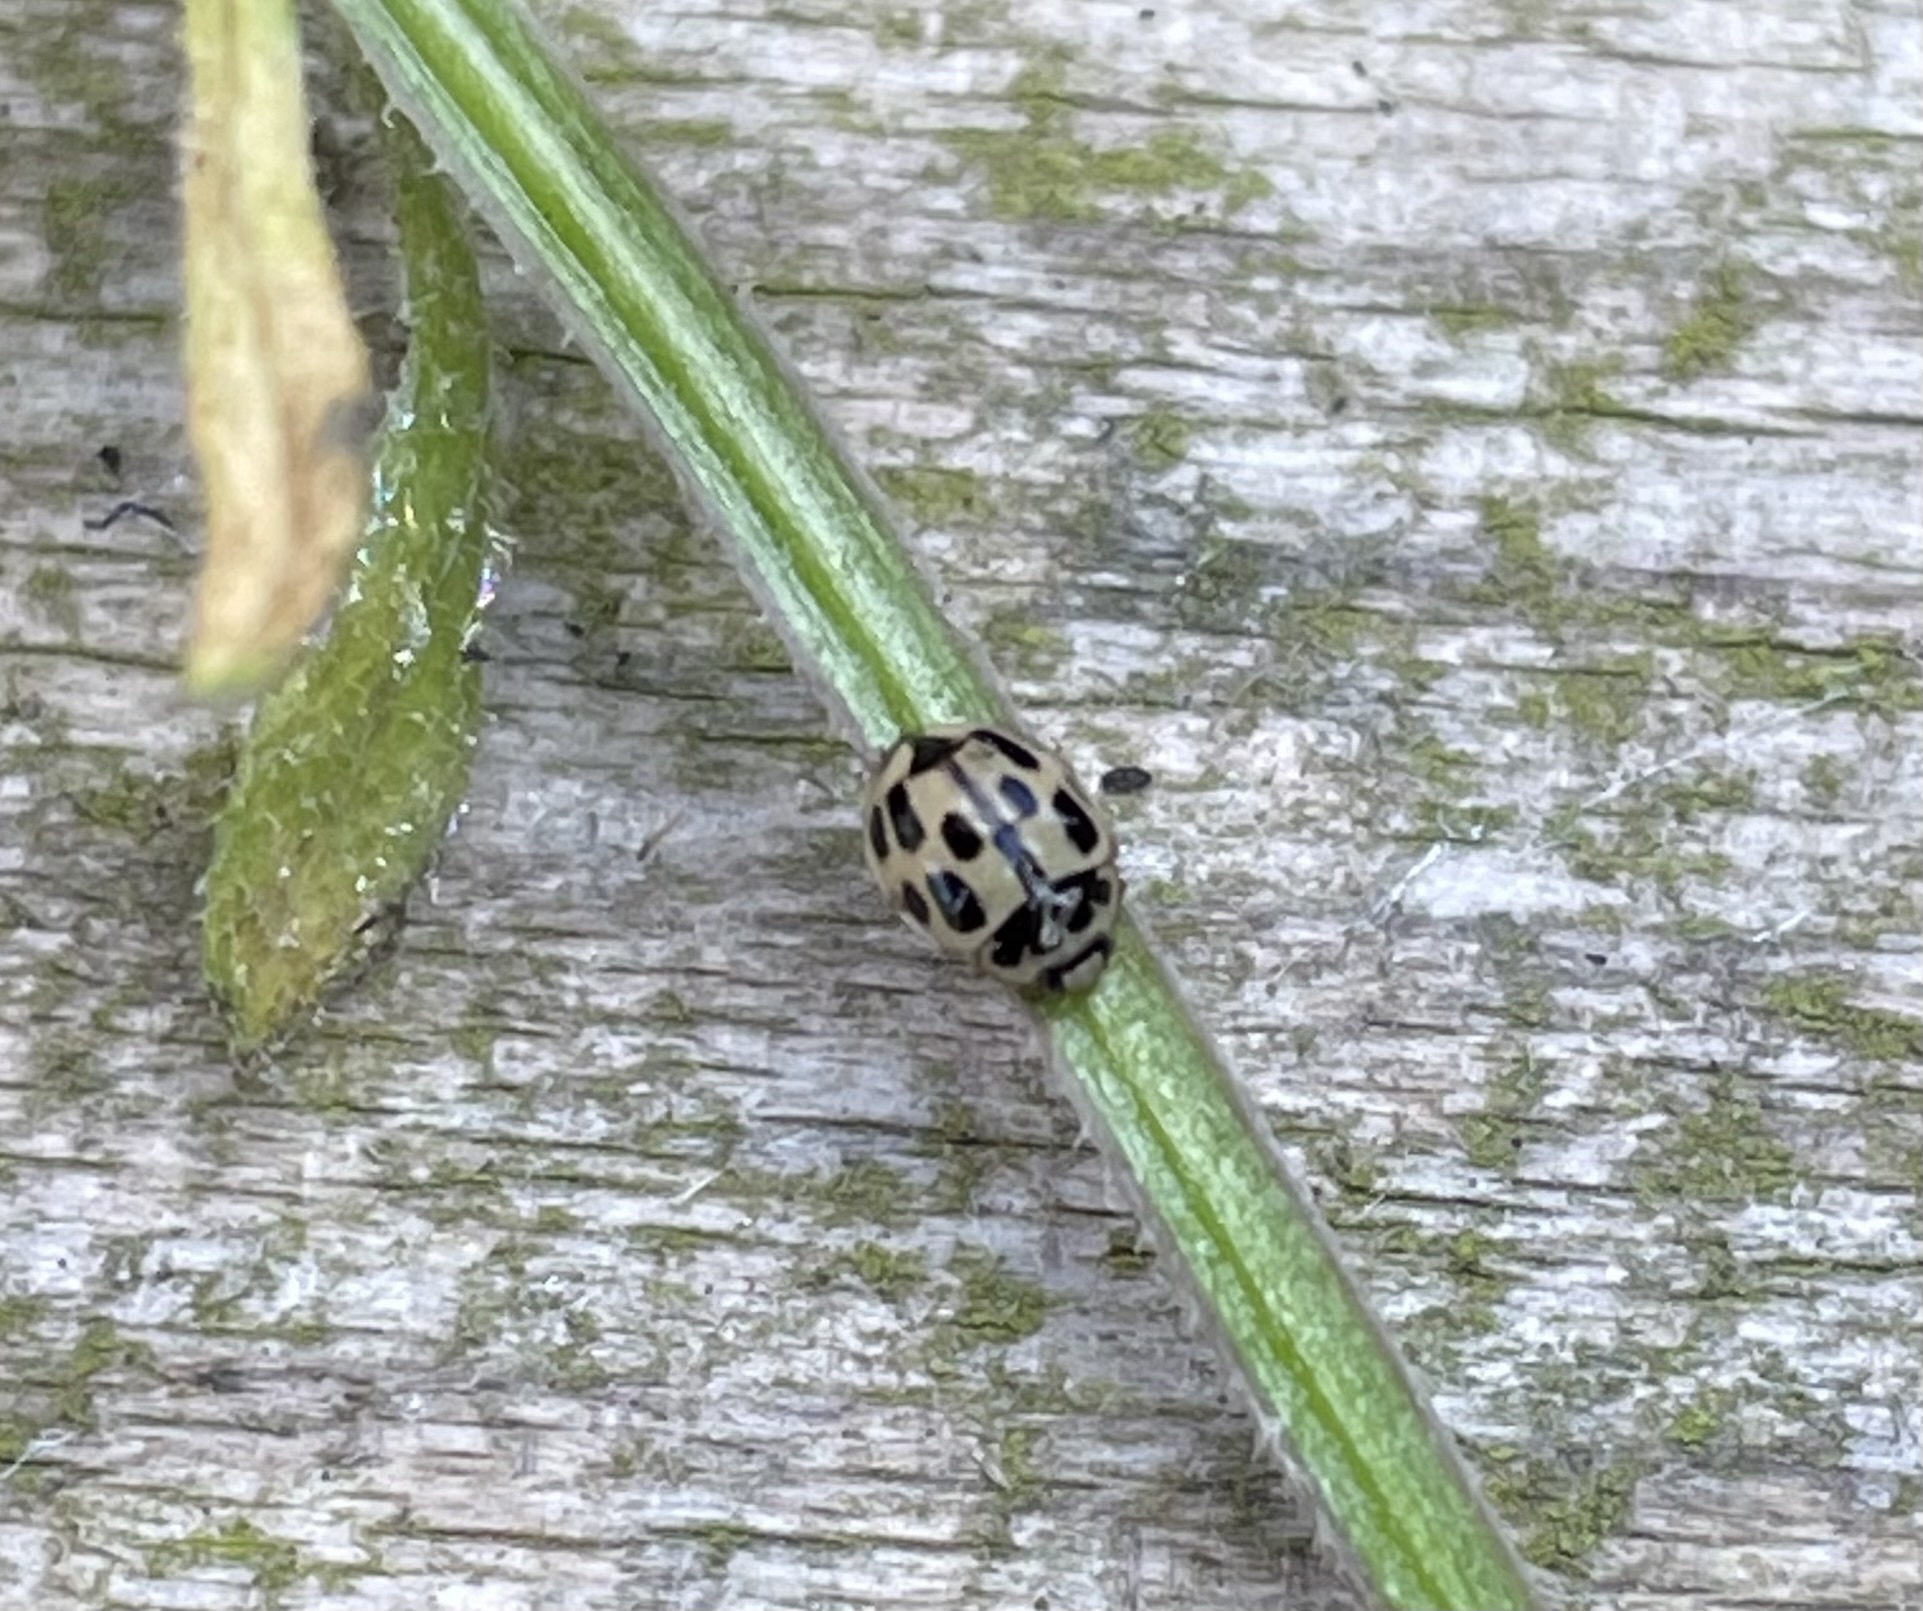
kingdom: Animalia
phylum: Arthropoda
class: Insecta
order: Coleoptera
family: Coccinellidae
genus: Propylaea
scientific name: Propylaea quatuordecimpunctata
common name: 14-spotted ladybird beetle
